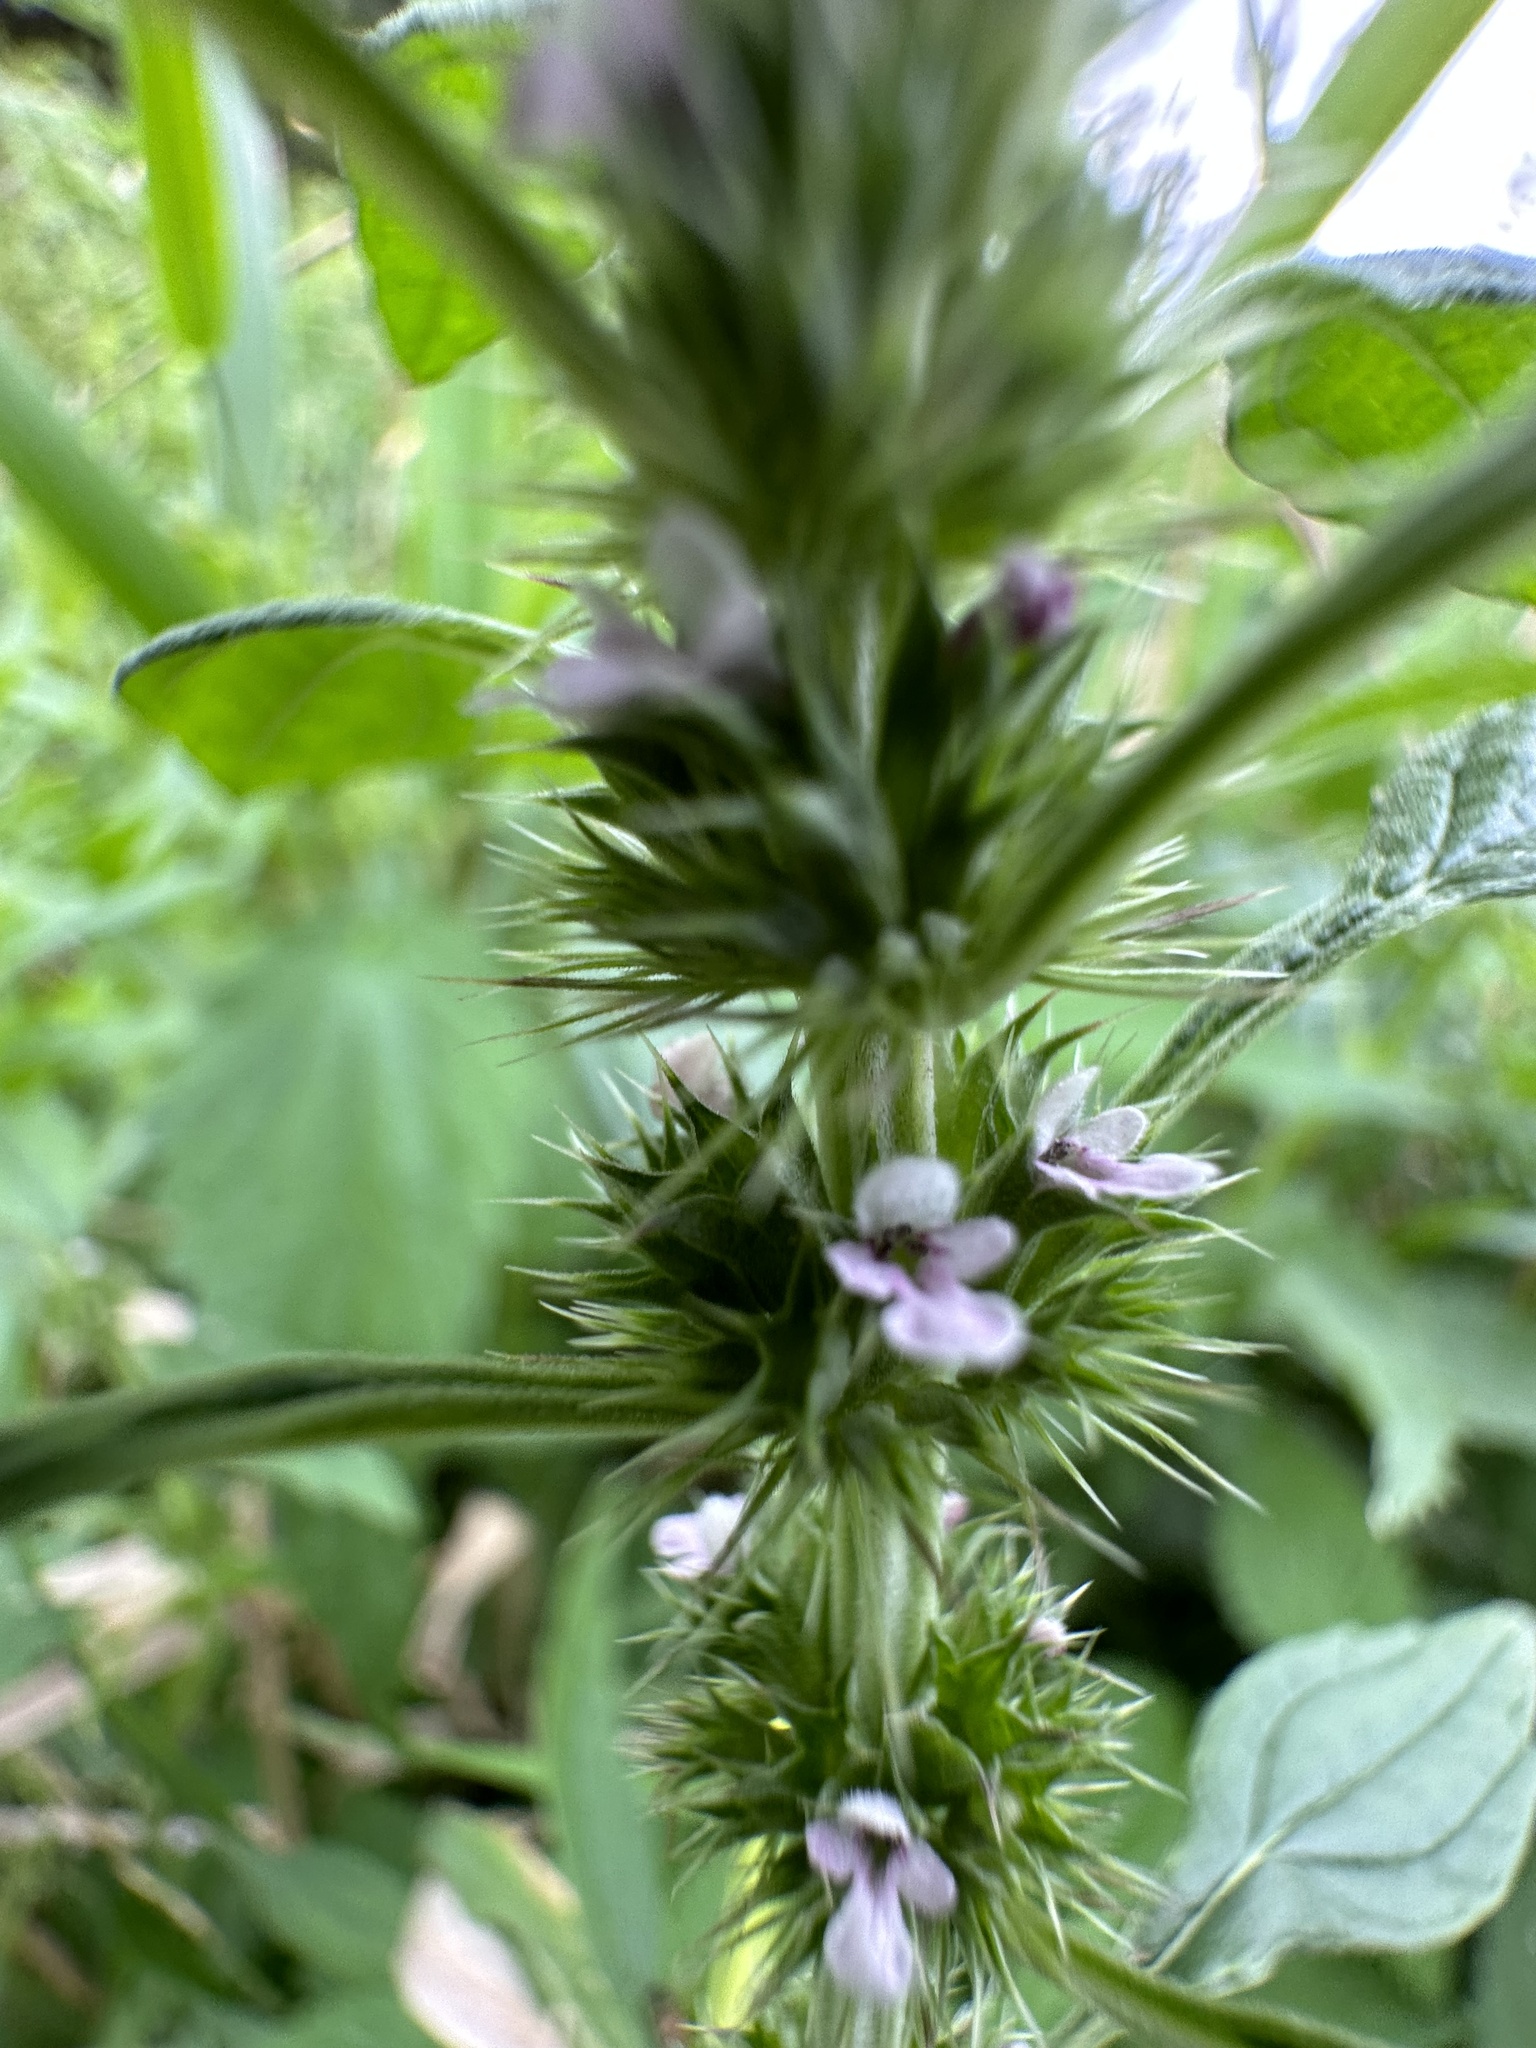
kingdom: Plantae
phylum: Tracheophyta
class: Magnoliopsida
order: Lamiales
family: Lamiaceae
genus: Chaiturus
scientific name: Chaiturus marrubiastrum
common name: Lion's tail
